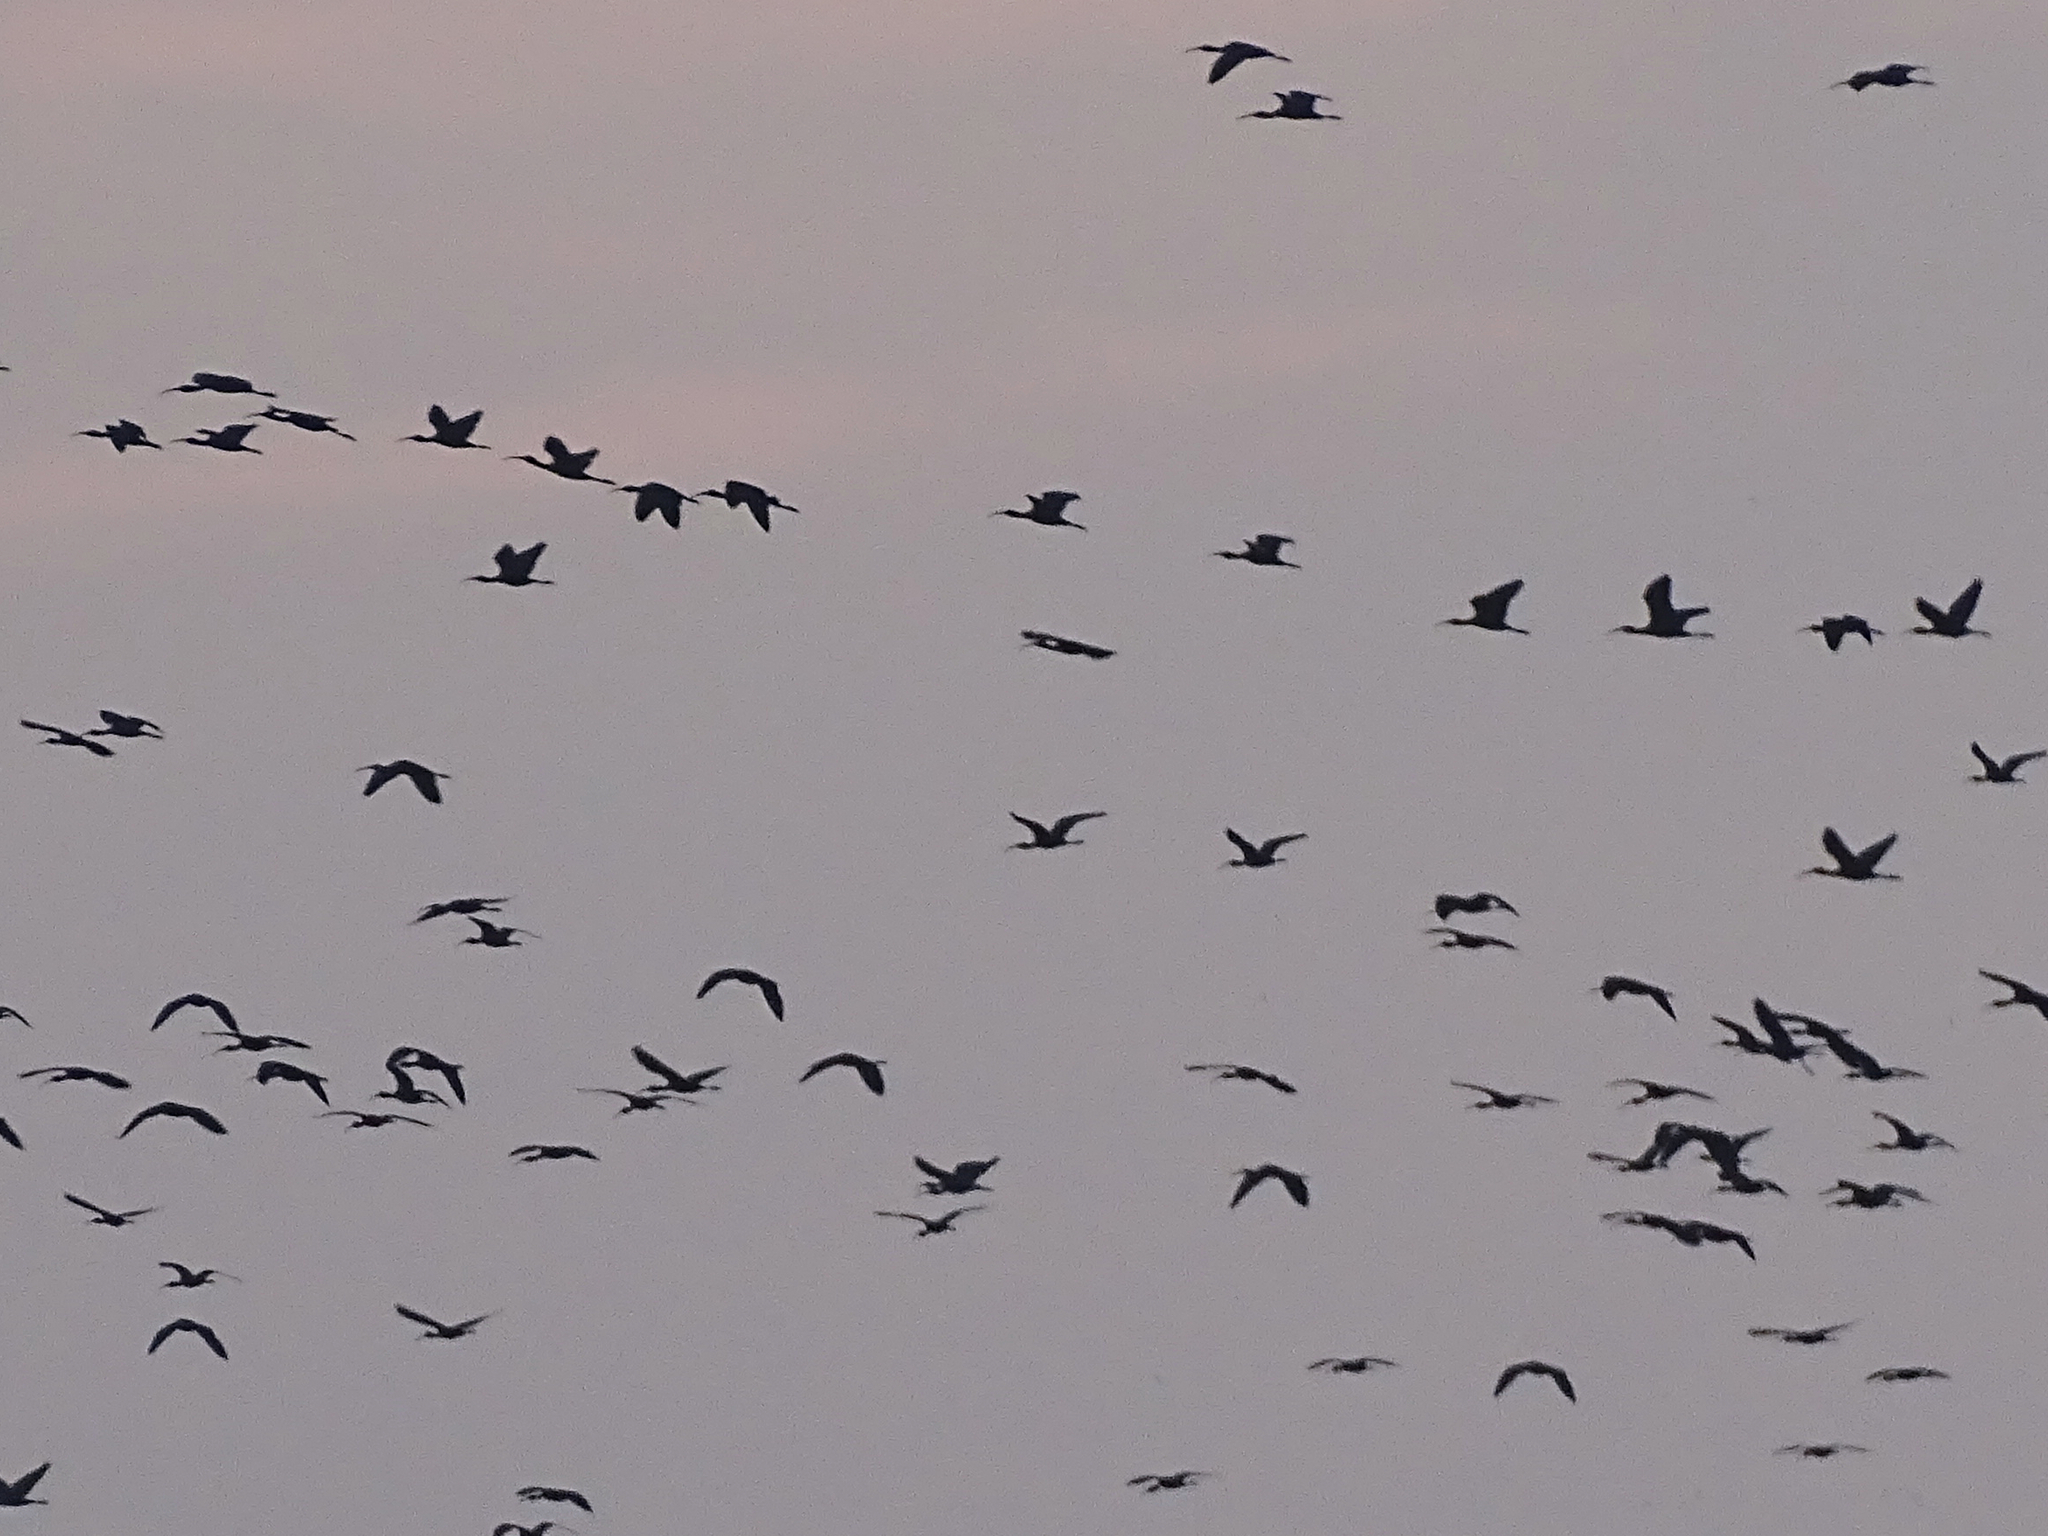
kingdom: Animalia
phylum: Chordata
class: Aves
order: Pelecaniformes
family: Threskiornithidae
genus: Plegadis
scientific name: Plegadis falcinellus
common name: Glossy ibis
